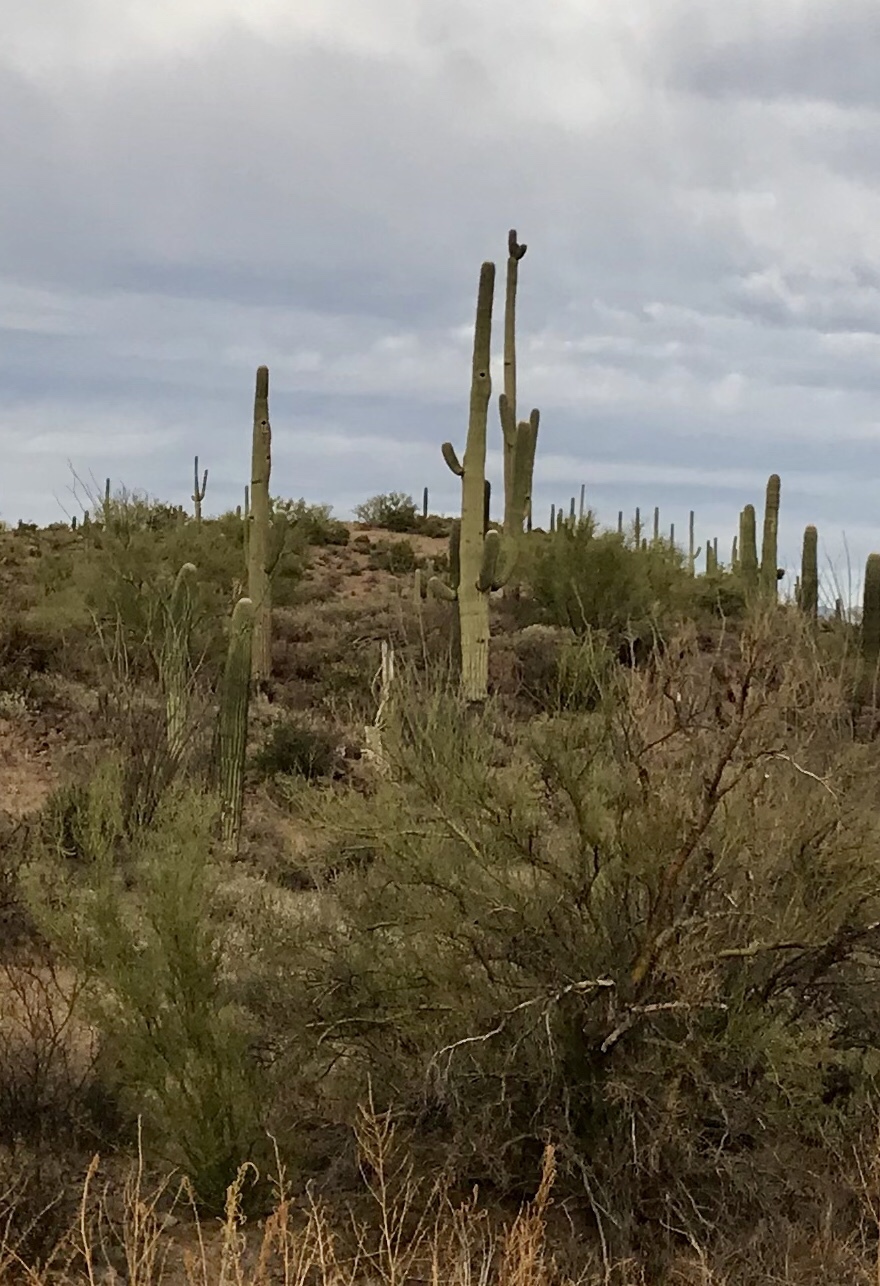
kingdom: Plantae
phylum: Tracheophyta
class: Magnoliopsida
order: Caryophyllales
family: Cactaceae
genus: Carnegiea
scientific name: Carnegiea gigantea
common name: Saguaro
